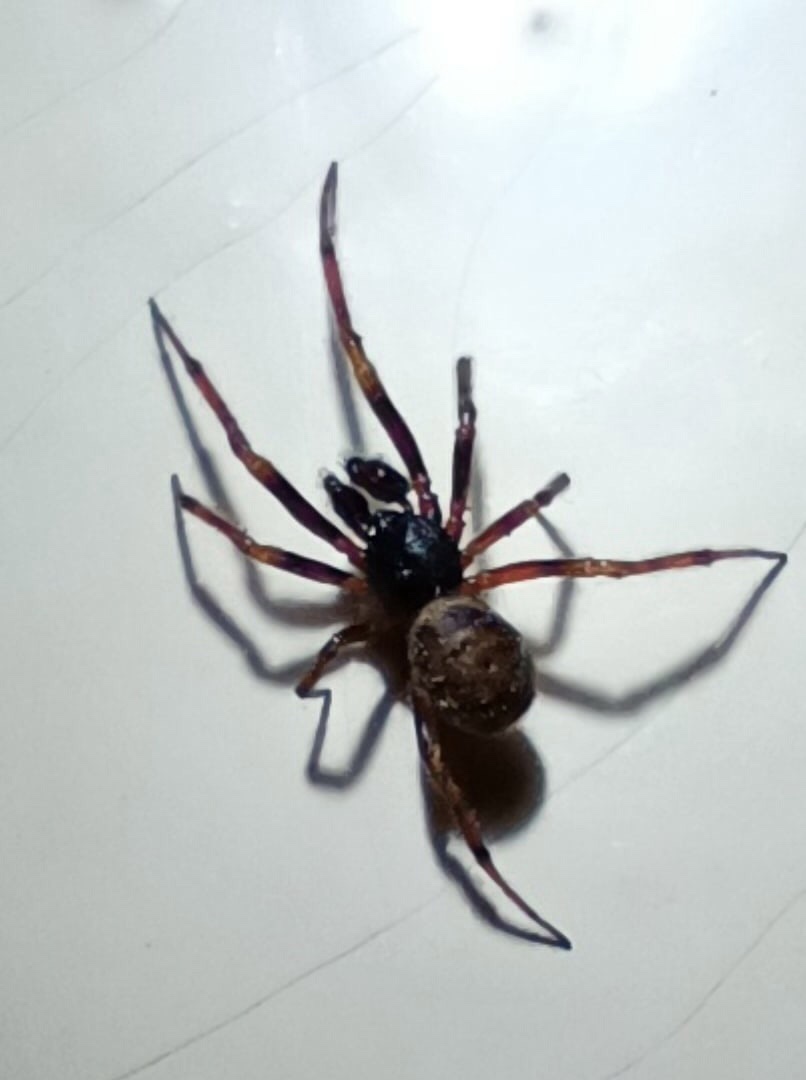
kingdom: Animalia
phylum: Arthropoda
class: Arachnida
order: Araneae
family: Theridiidae
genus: Steatoda
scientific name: Steatoda bipunctata
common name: False widow
